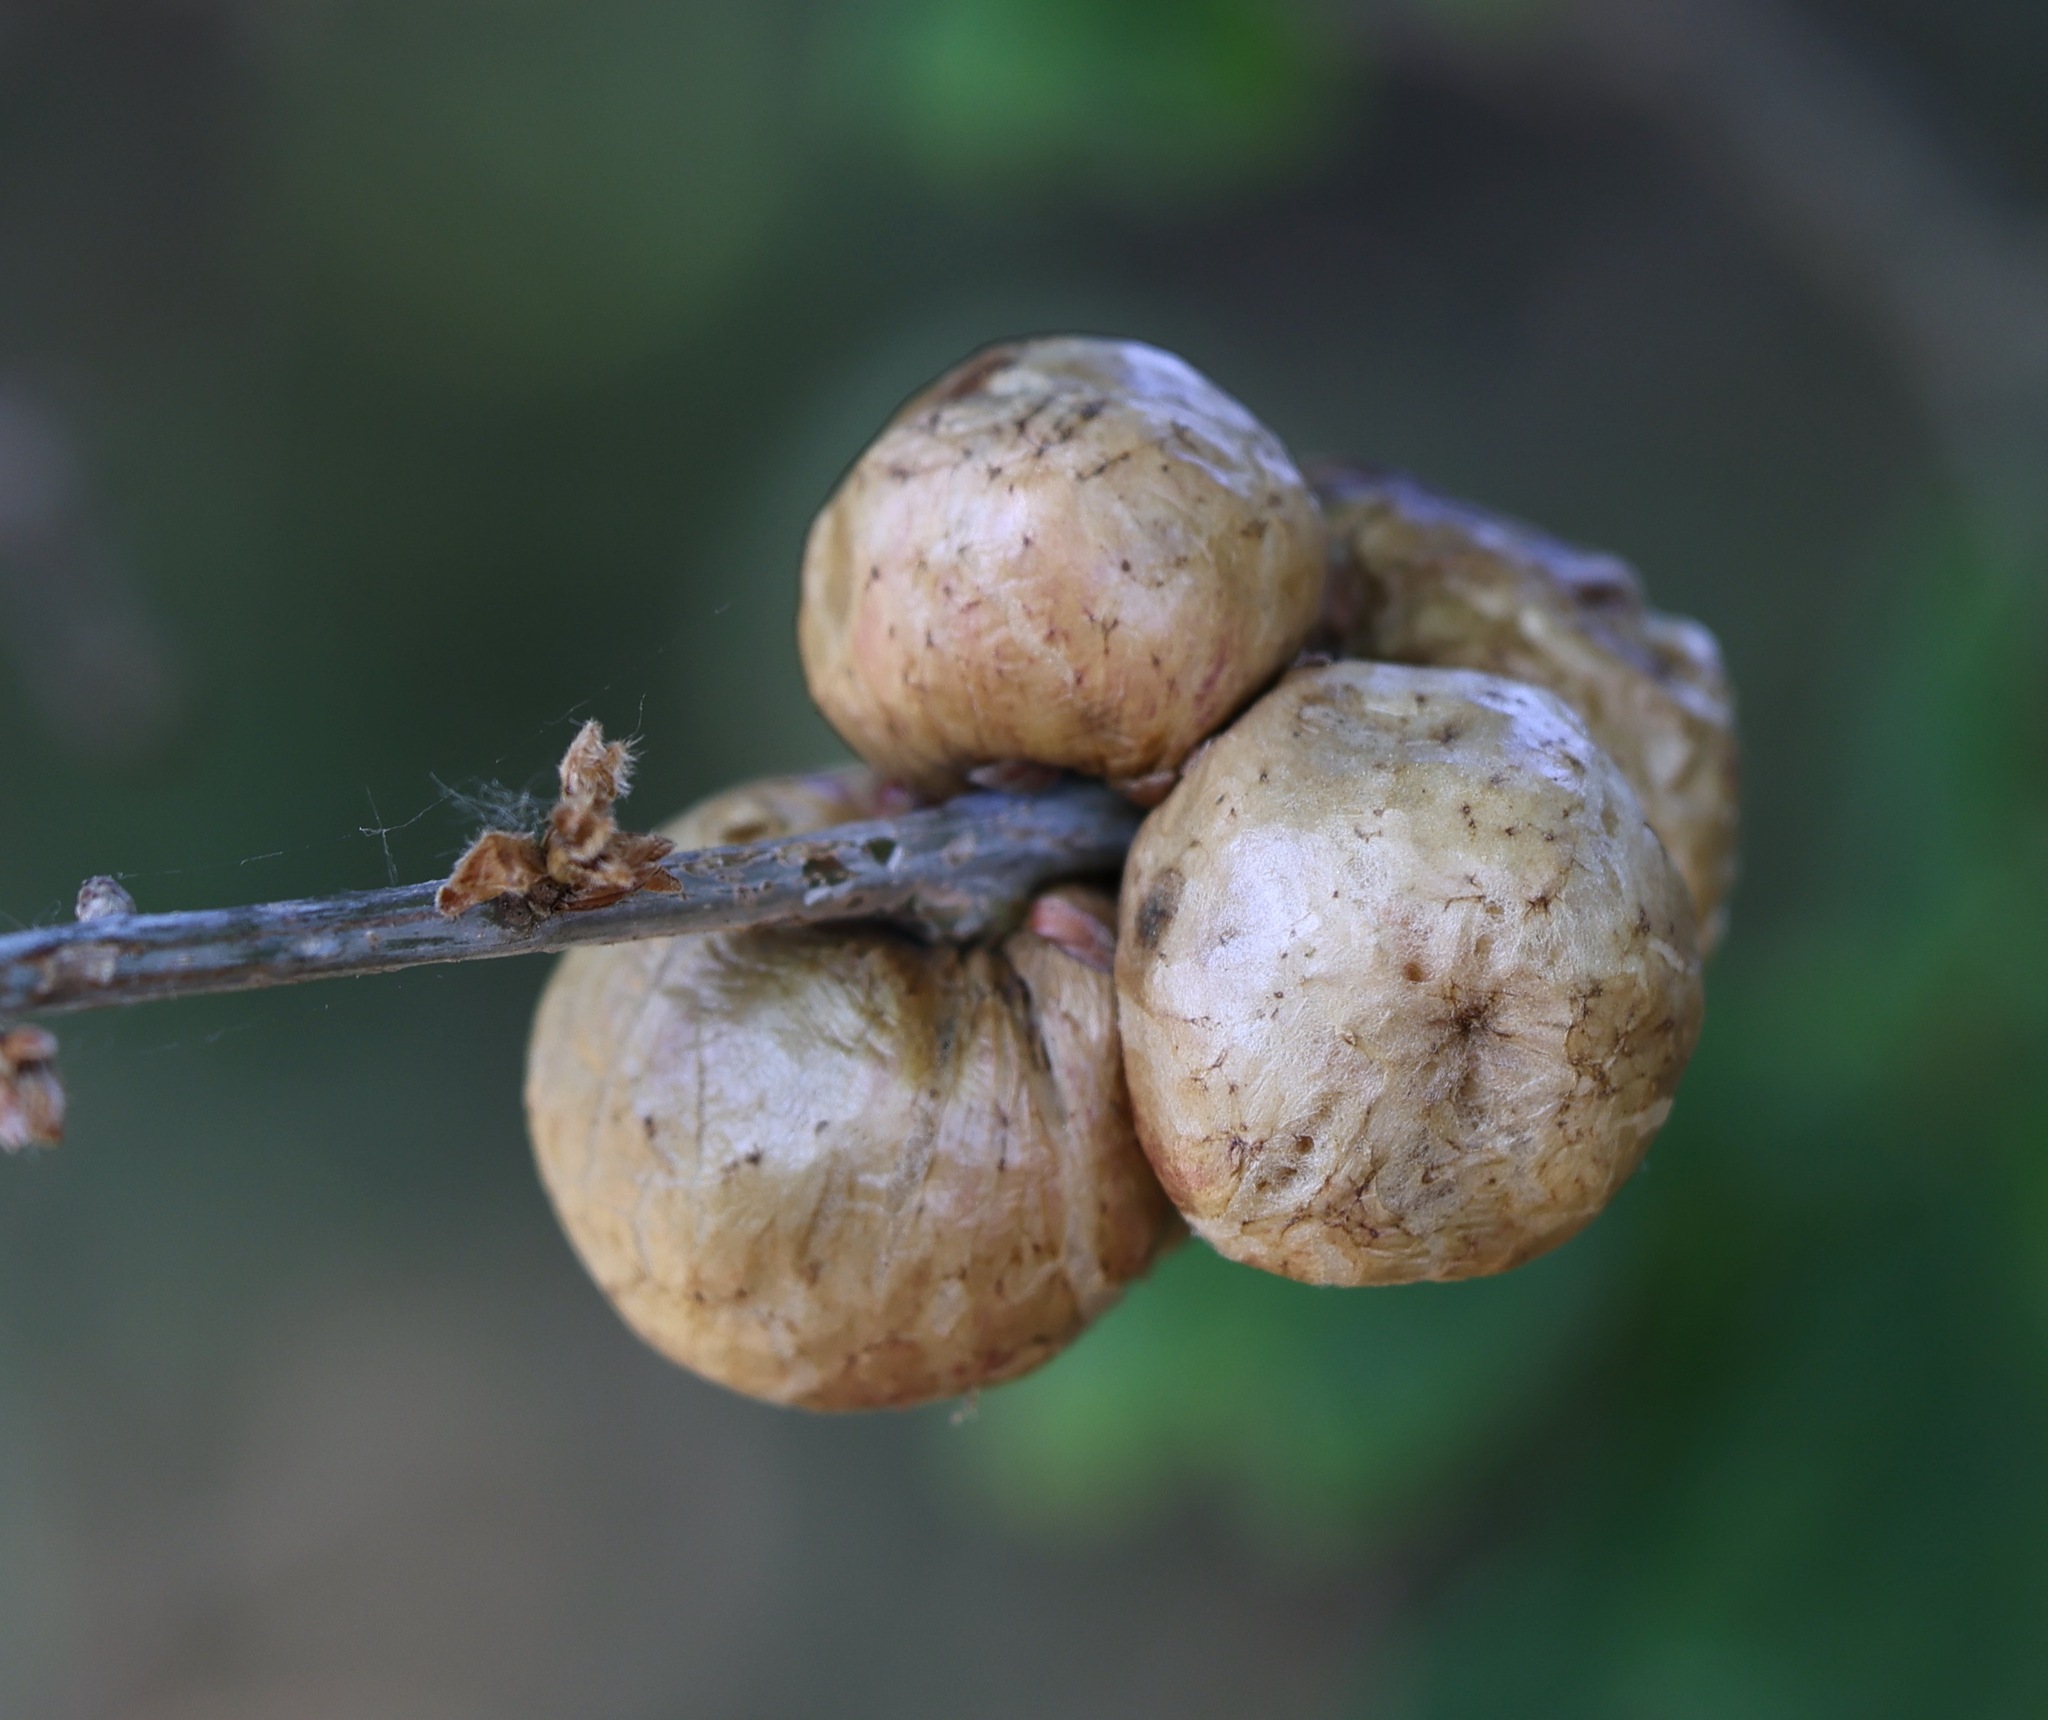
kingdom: Animalia
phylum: Arthropoda
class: Insecta
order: Hymenoptera
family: Cynipidae
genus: Biorhiza
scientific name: Biorhiza pallida
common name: Oak apple
